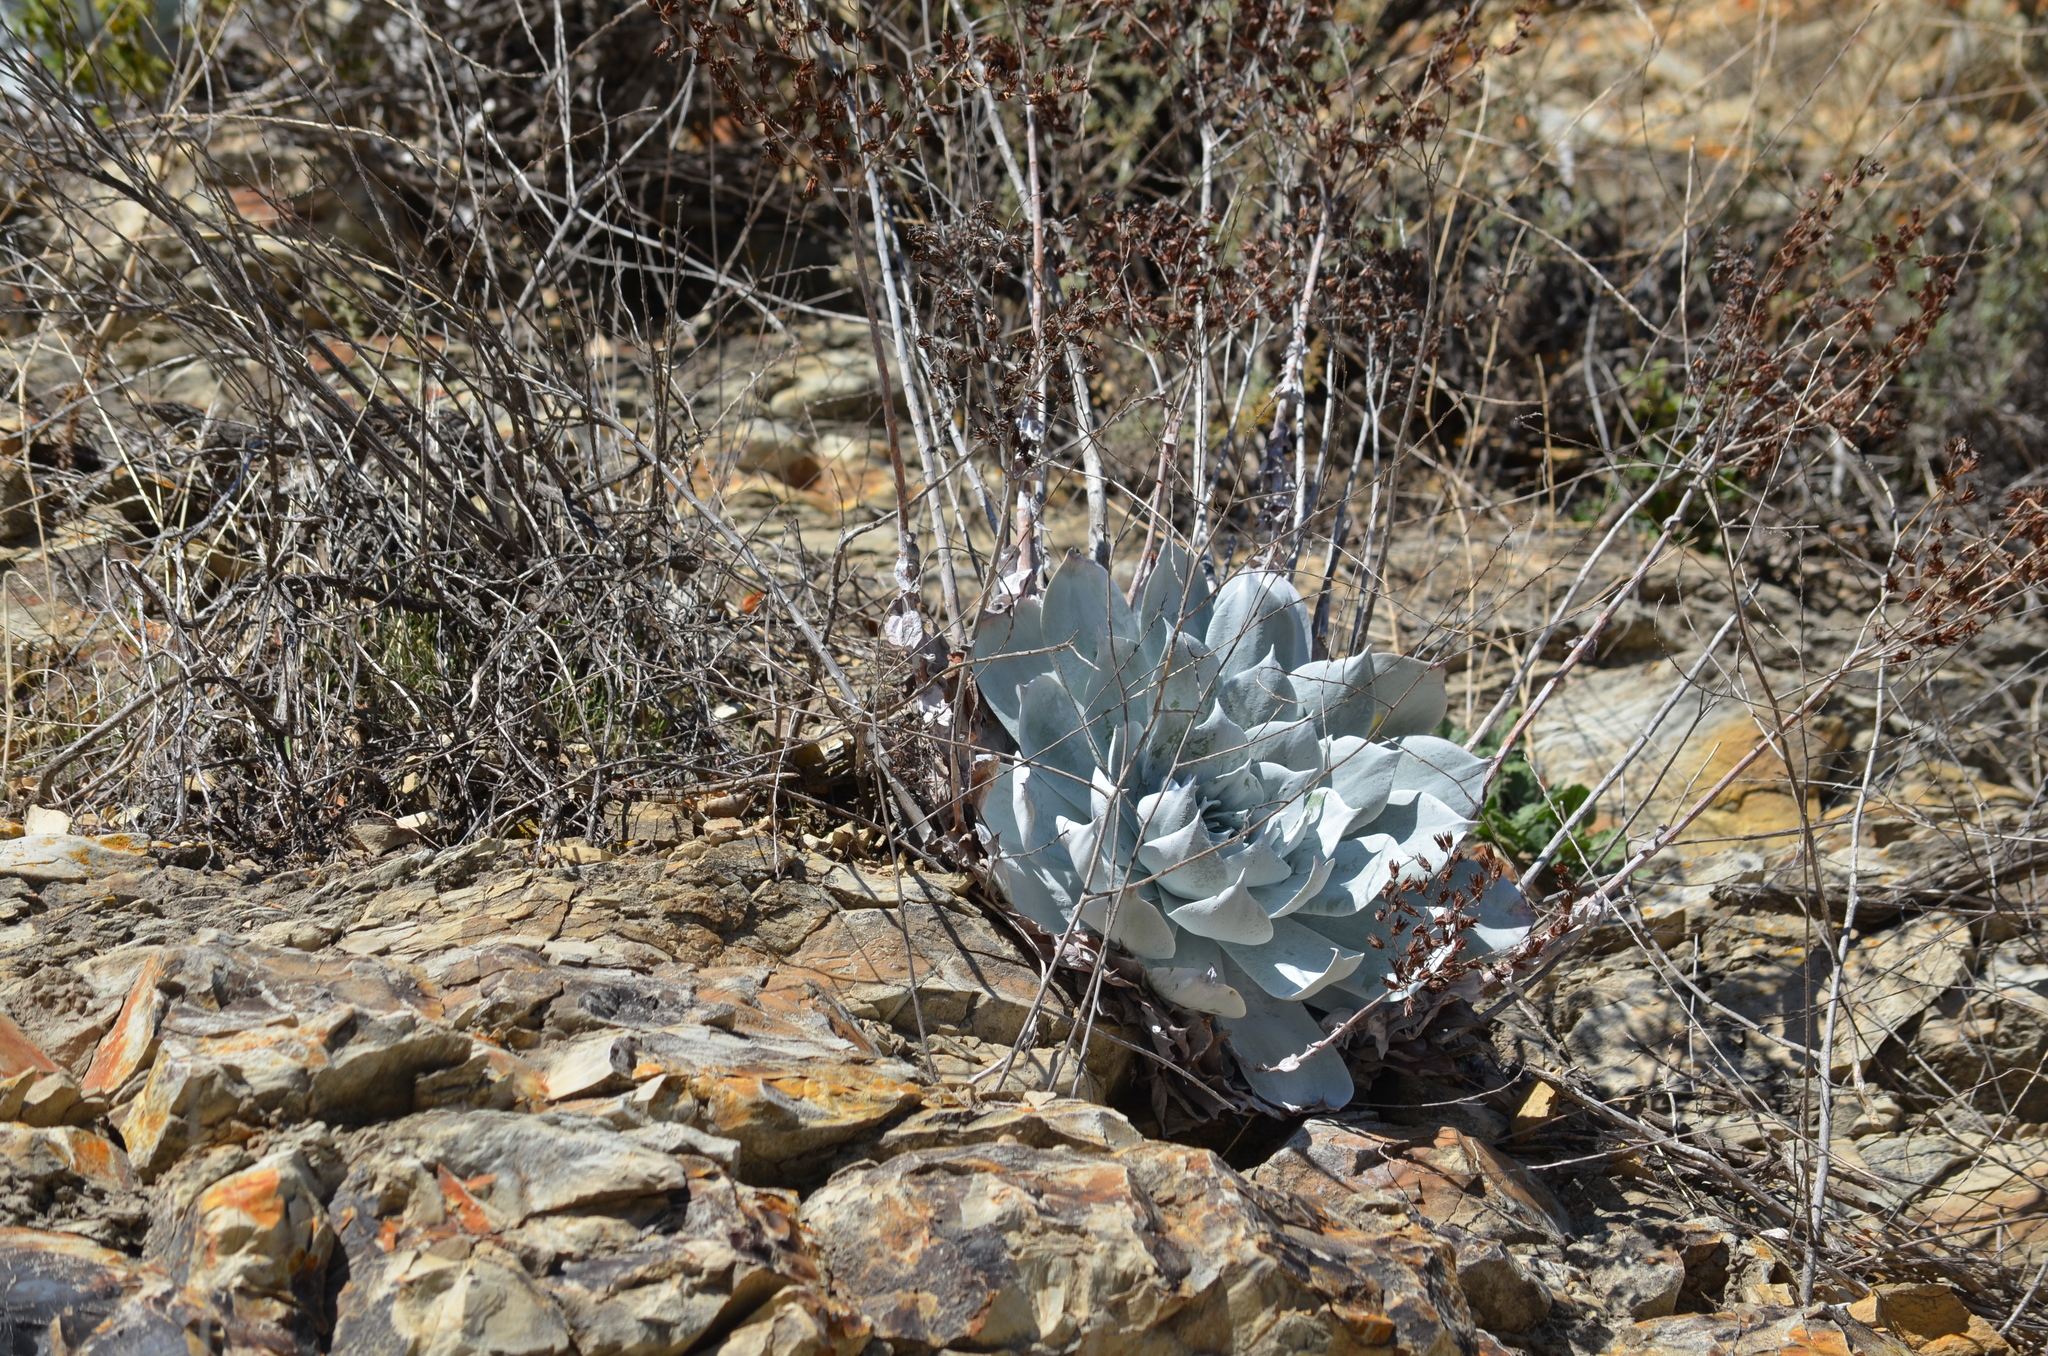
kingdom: Plantae
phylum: Tracheophyta
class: Magnoliopsida
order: Saxifragales
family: Crassulaceae
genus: Dudleya
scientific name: Dudleya pulverulenta
